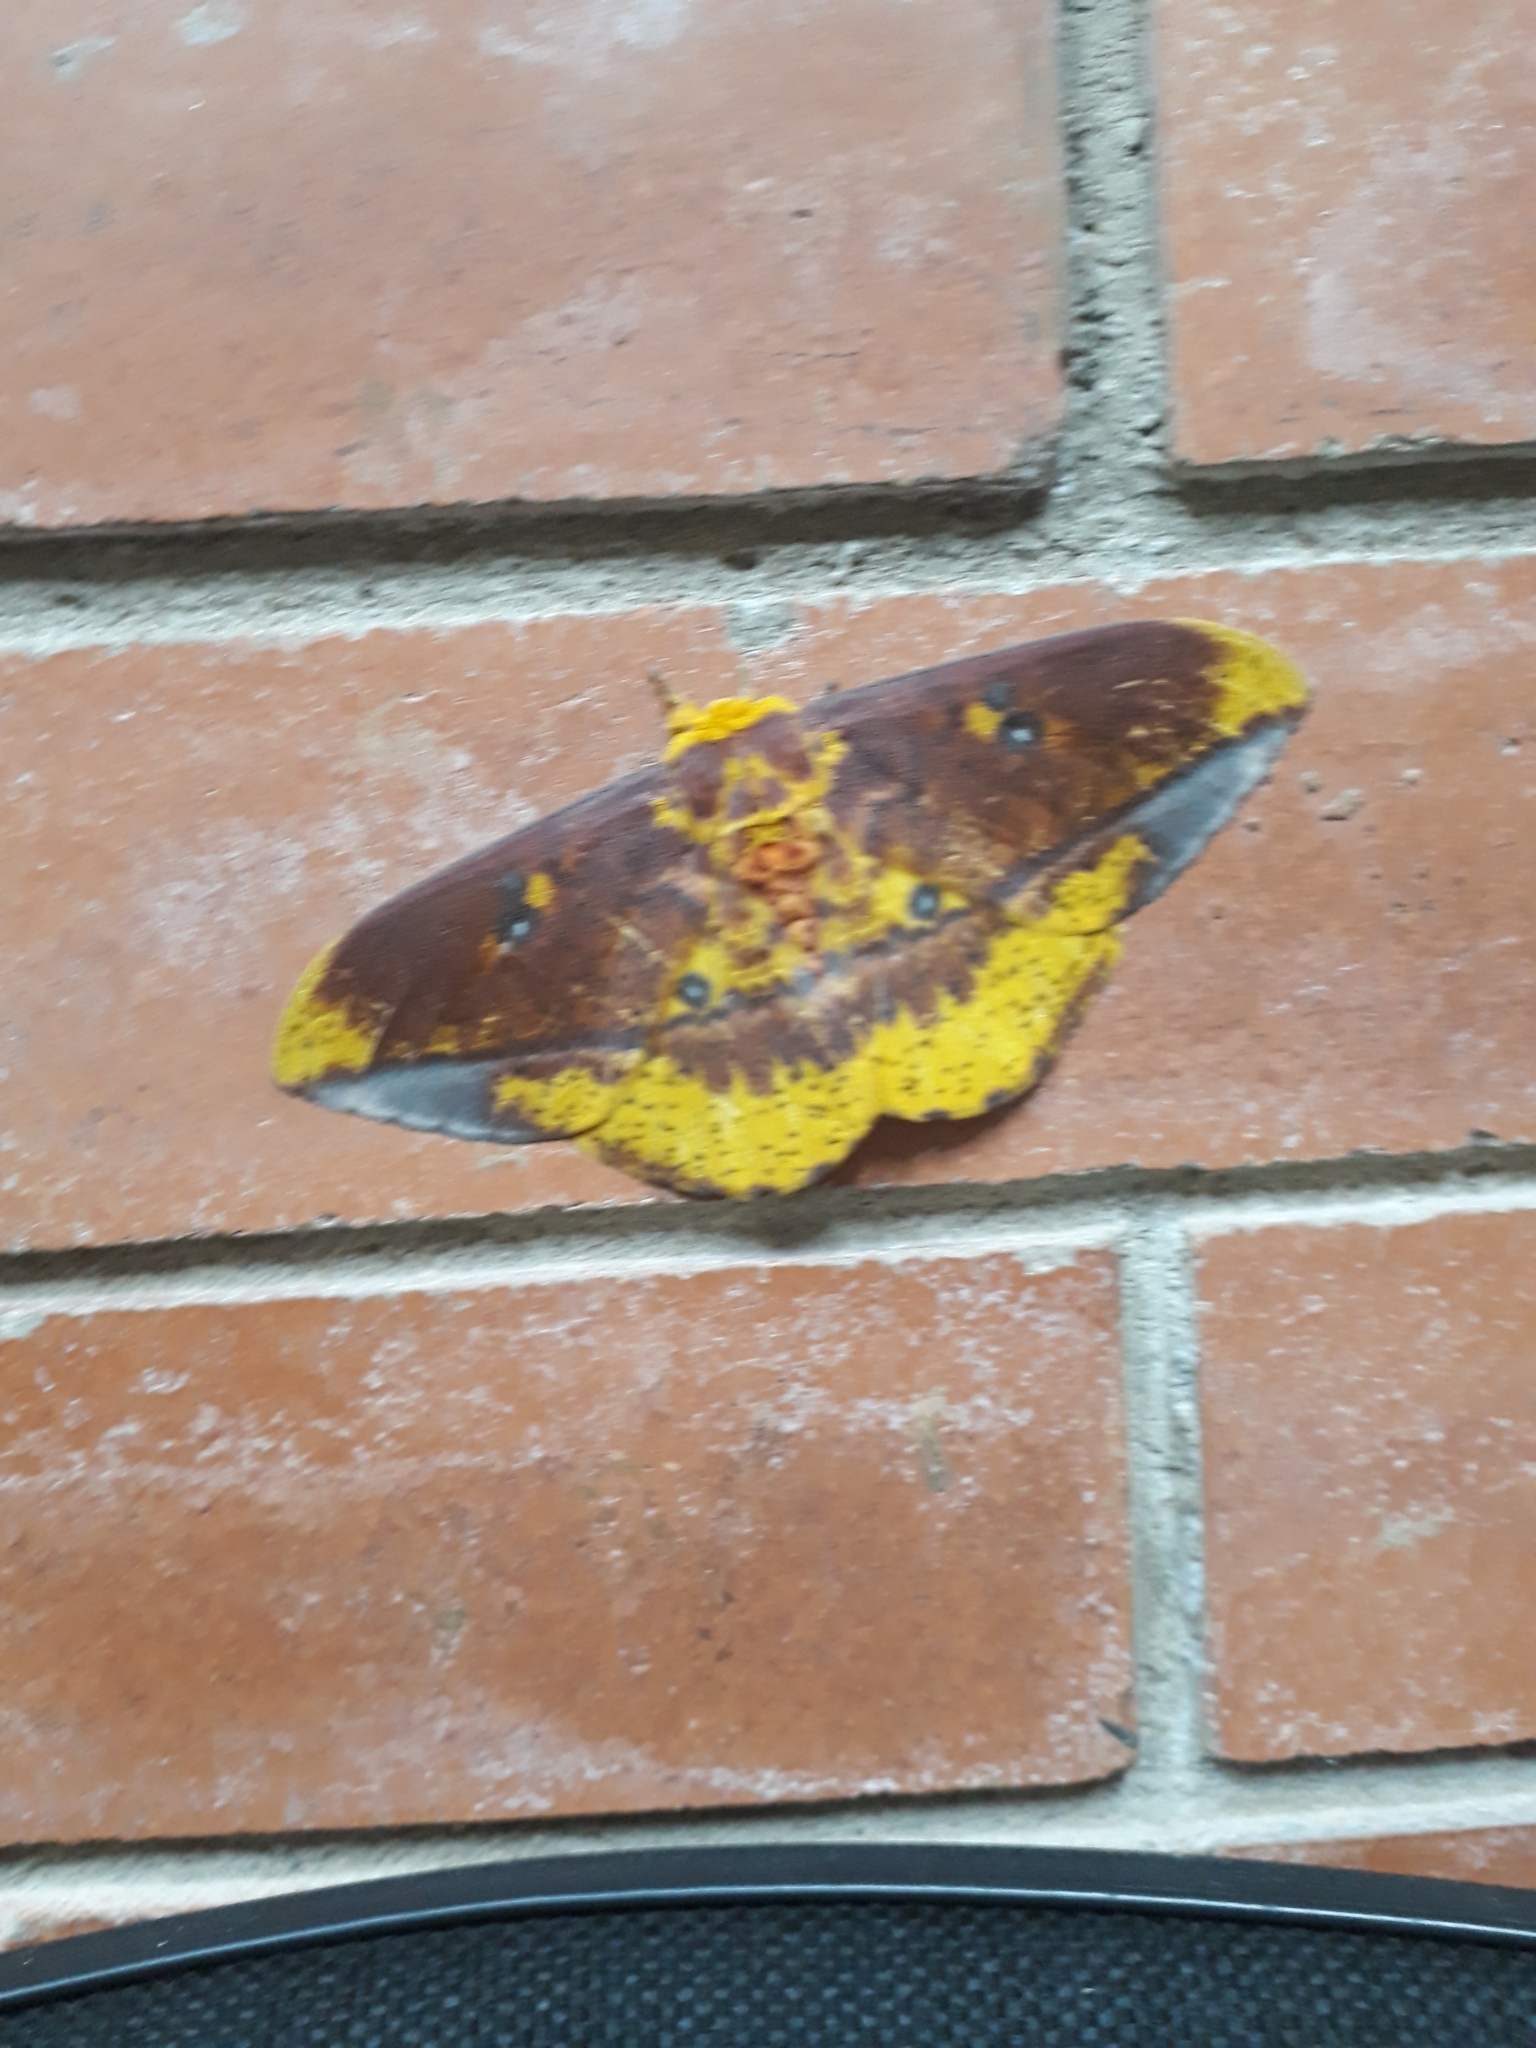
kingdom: Animalia
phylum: Arthropoda
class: Insecta
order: Lepidoptera
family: Saturniidae
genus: Eacles
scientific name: Eacles ormondei
